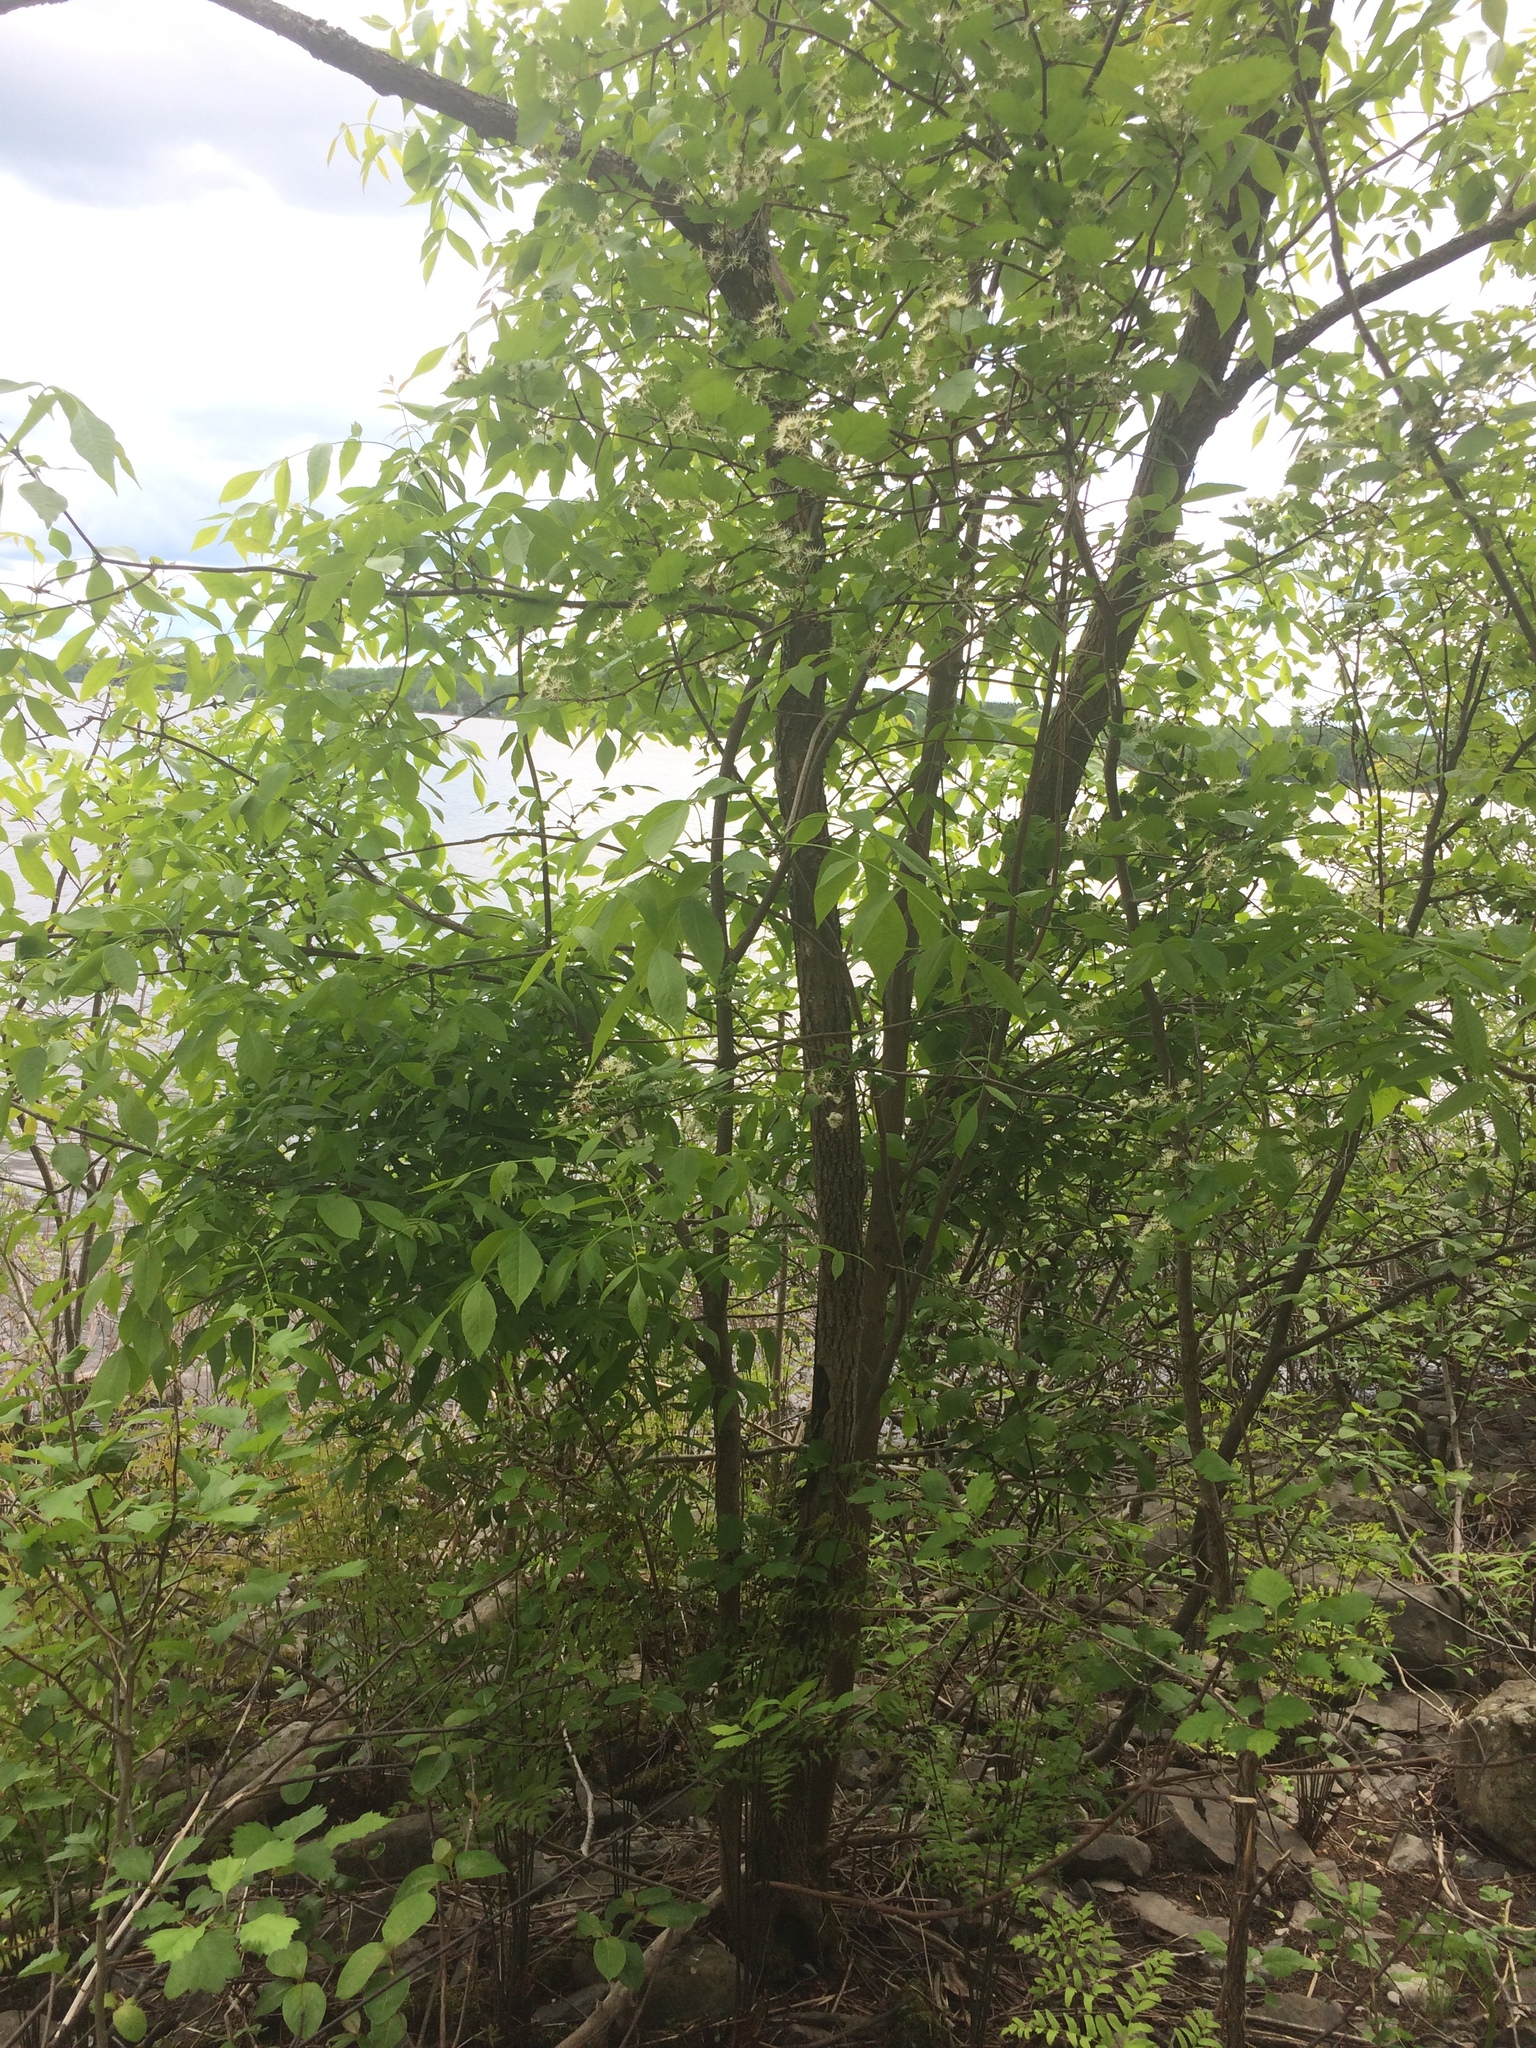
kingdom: Plantae
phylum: Tracheophyta
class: Magnoliopsida
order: Rosales
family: Rosaceae
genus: Crataegus
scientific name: Crataegus irrasa
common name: Unshorn hawthorn
